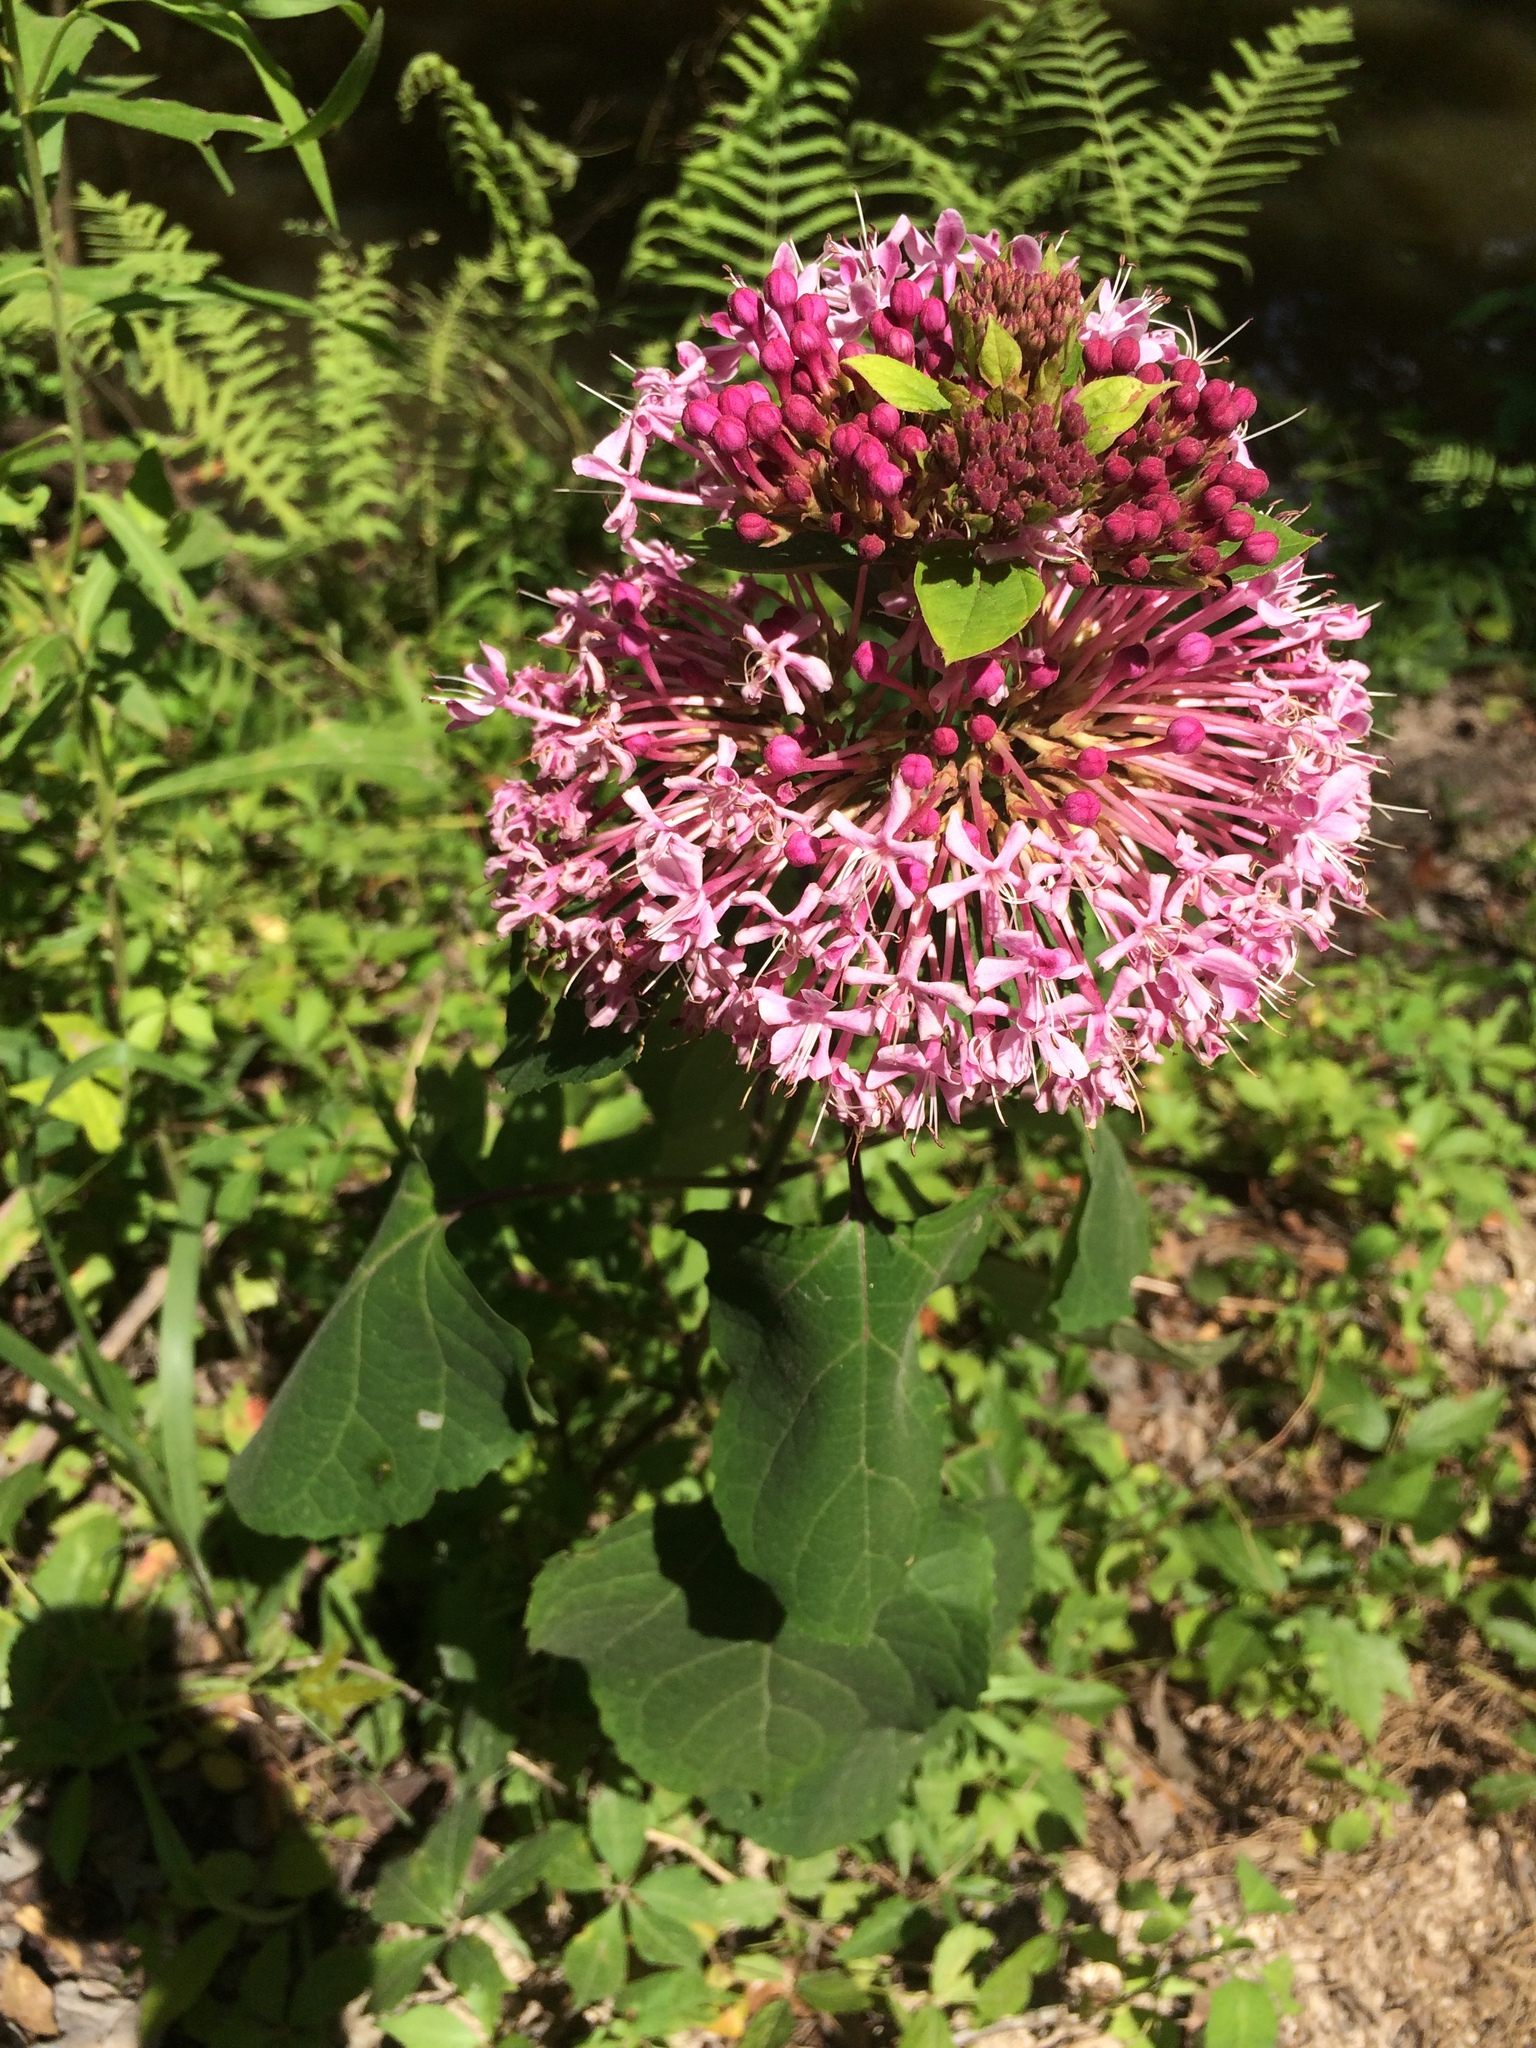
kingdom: Plantae
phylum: Tracheophyta
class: Magnoliopsida
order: Lamiales
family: Lamiaceae
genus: Clerodendrum
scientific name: Clerodendrum bungei
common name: Rose glorybower
